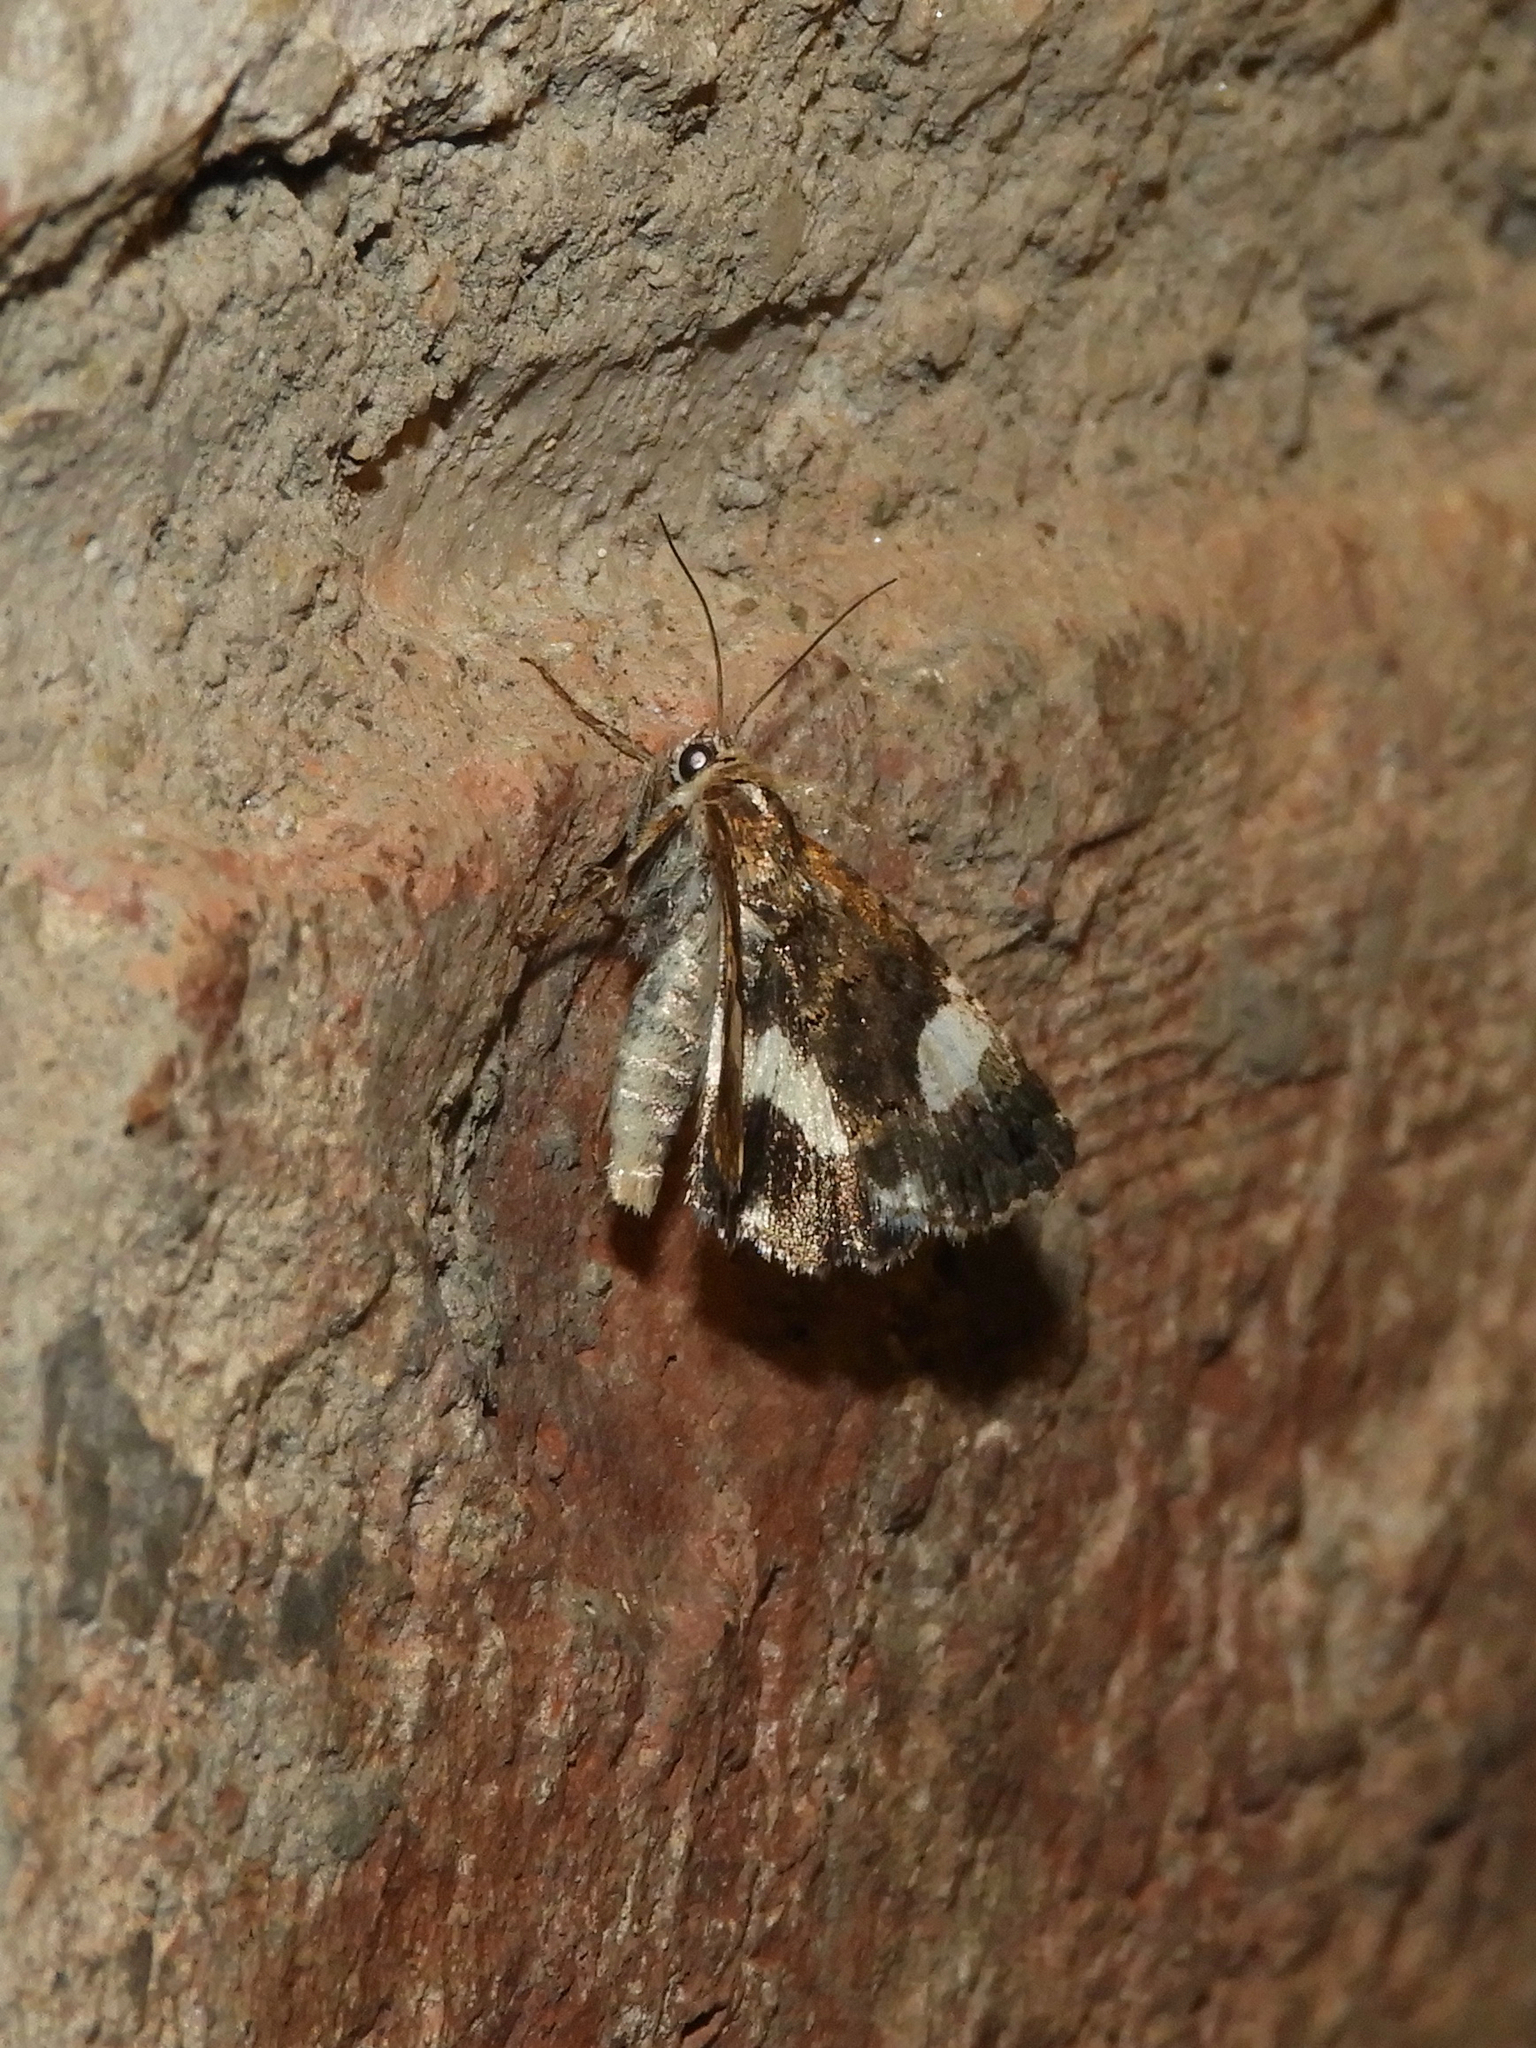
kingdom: Animalia
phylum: Arthropoda
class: Insecta
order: Lepidoptera
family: Erebidae
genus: Tyta
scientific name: Tyta luctuosa
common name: Four-spotted
